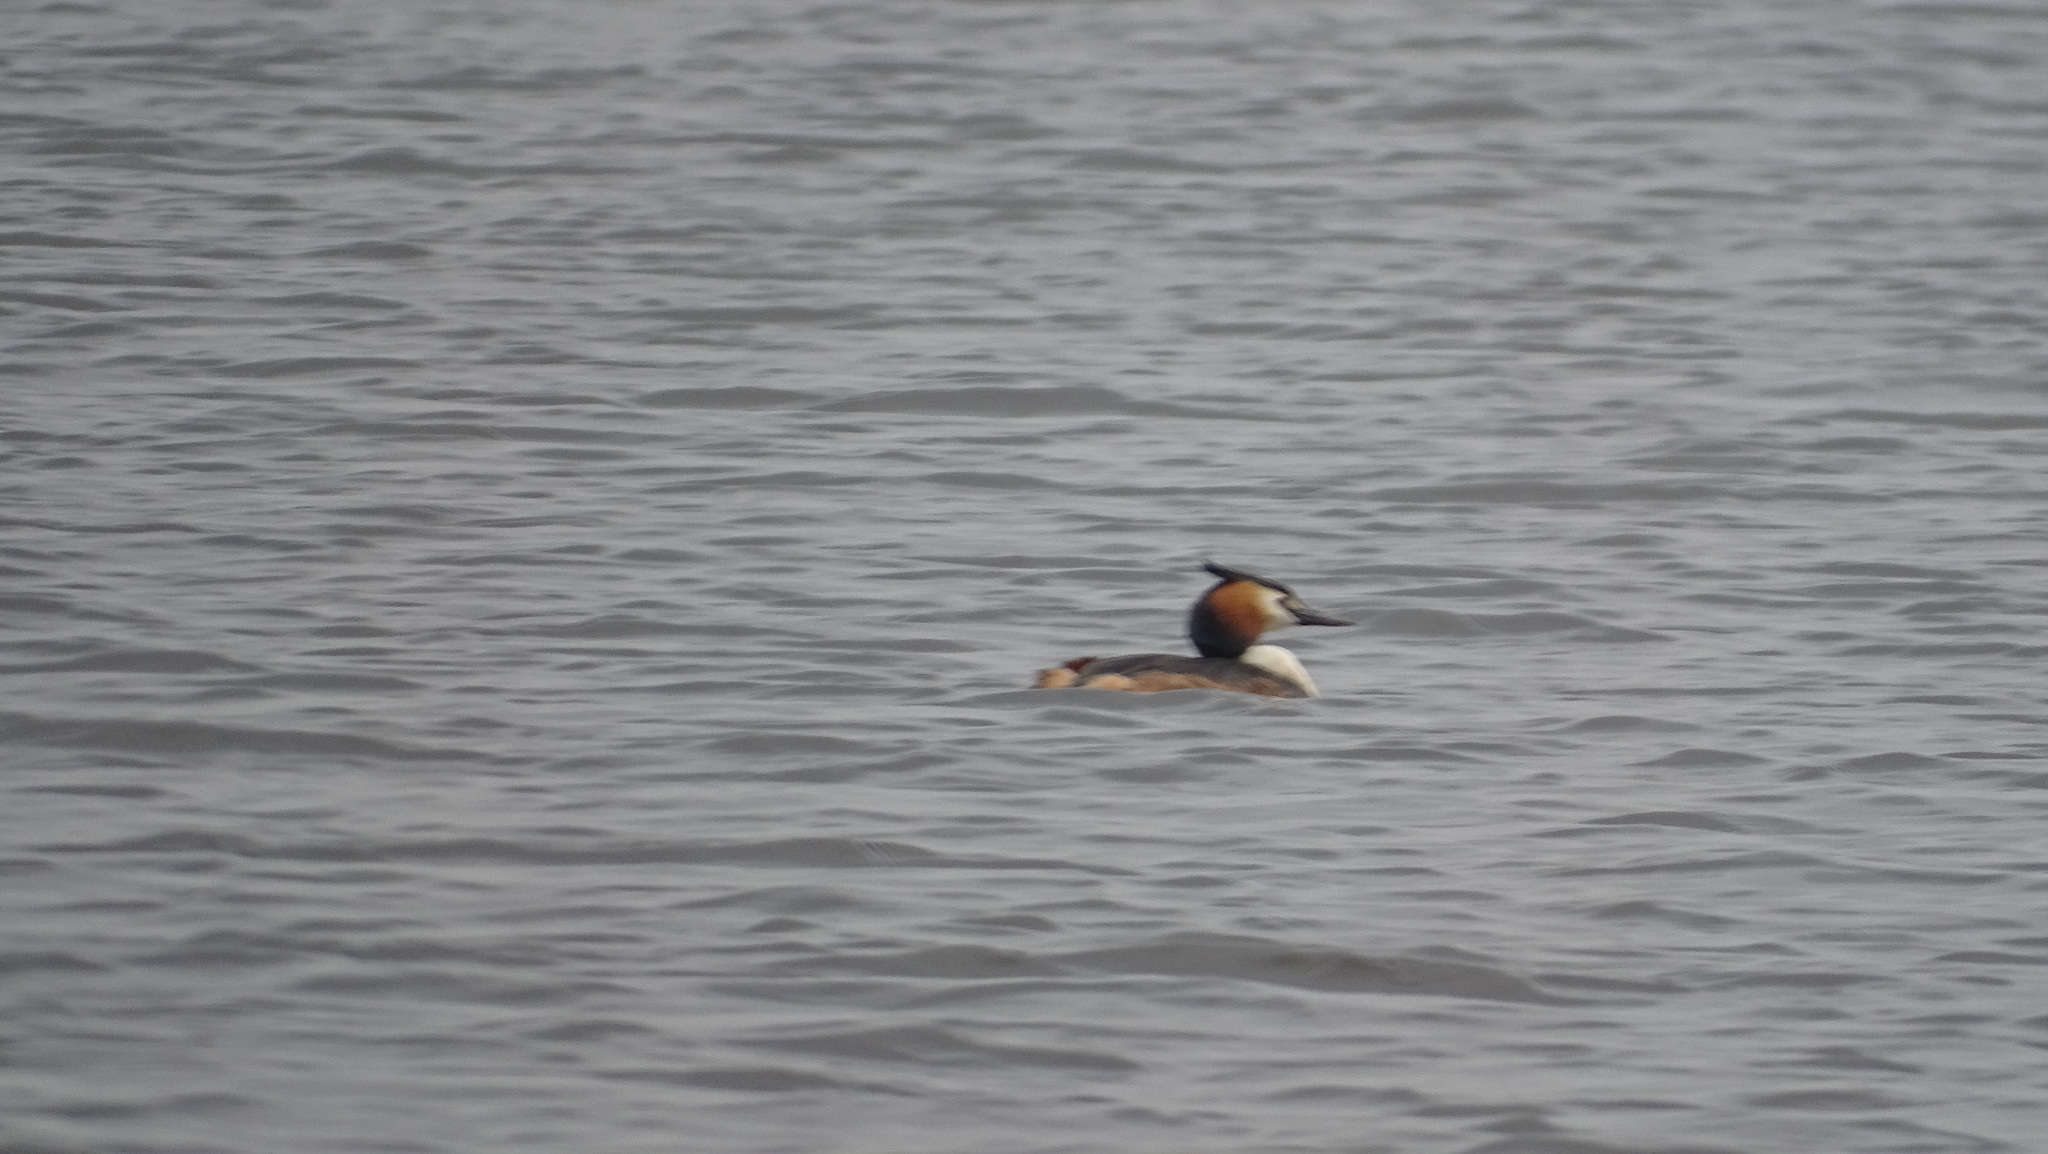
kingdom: Animalia
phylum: Chordata
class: Aves
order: Podicipediformes
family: Podicipedidae
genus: Podiceps
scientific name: Podiceps cristatus
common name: Great crested grebe
